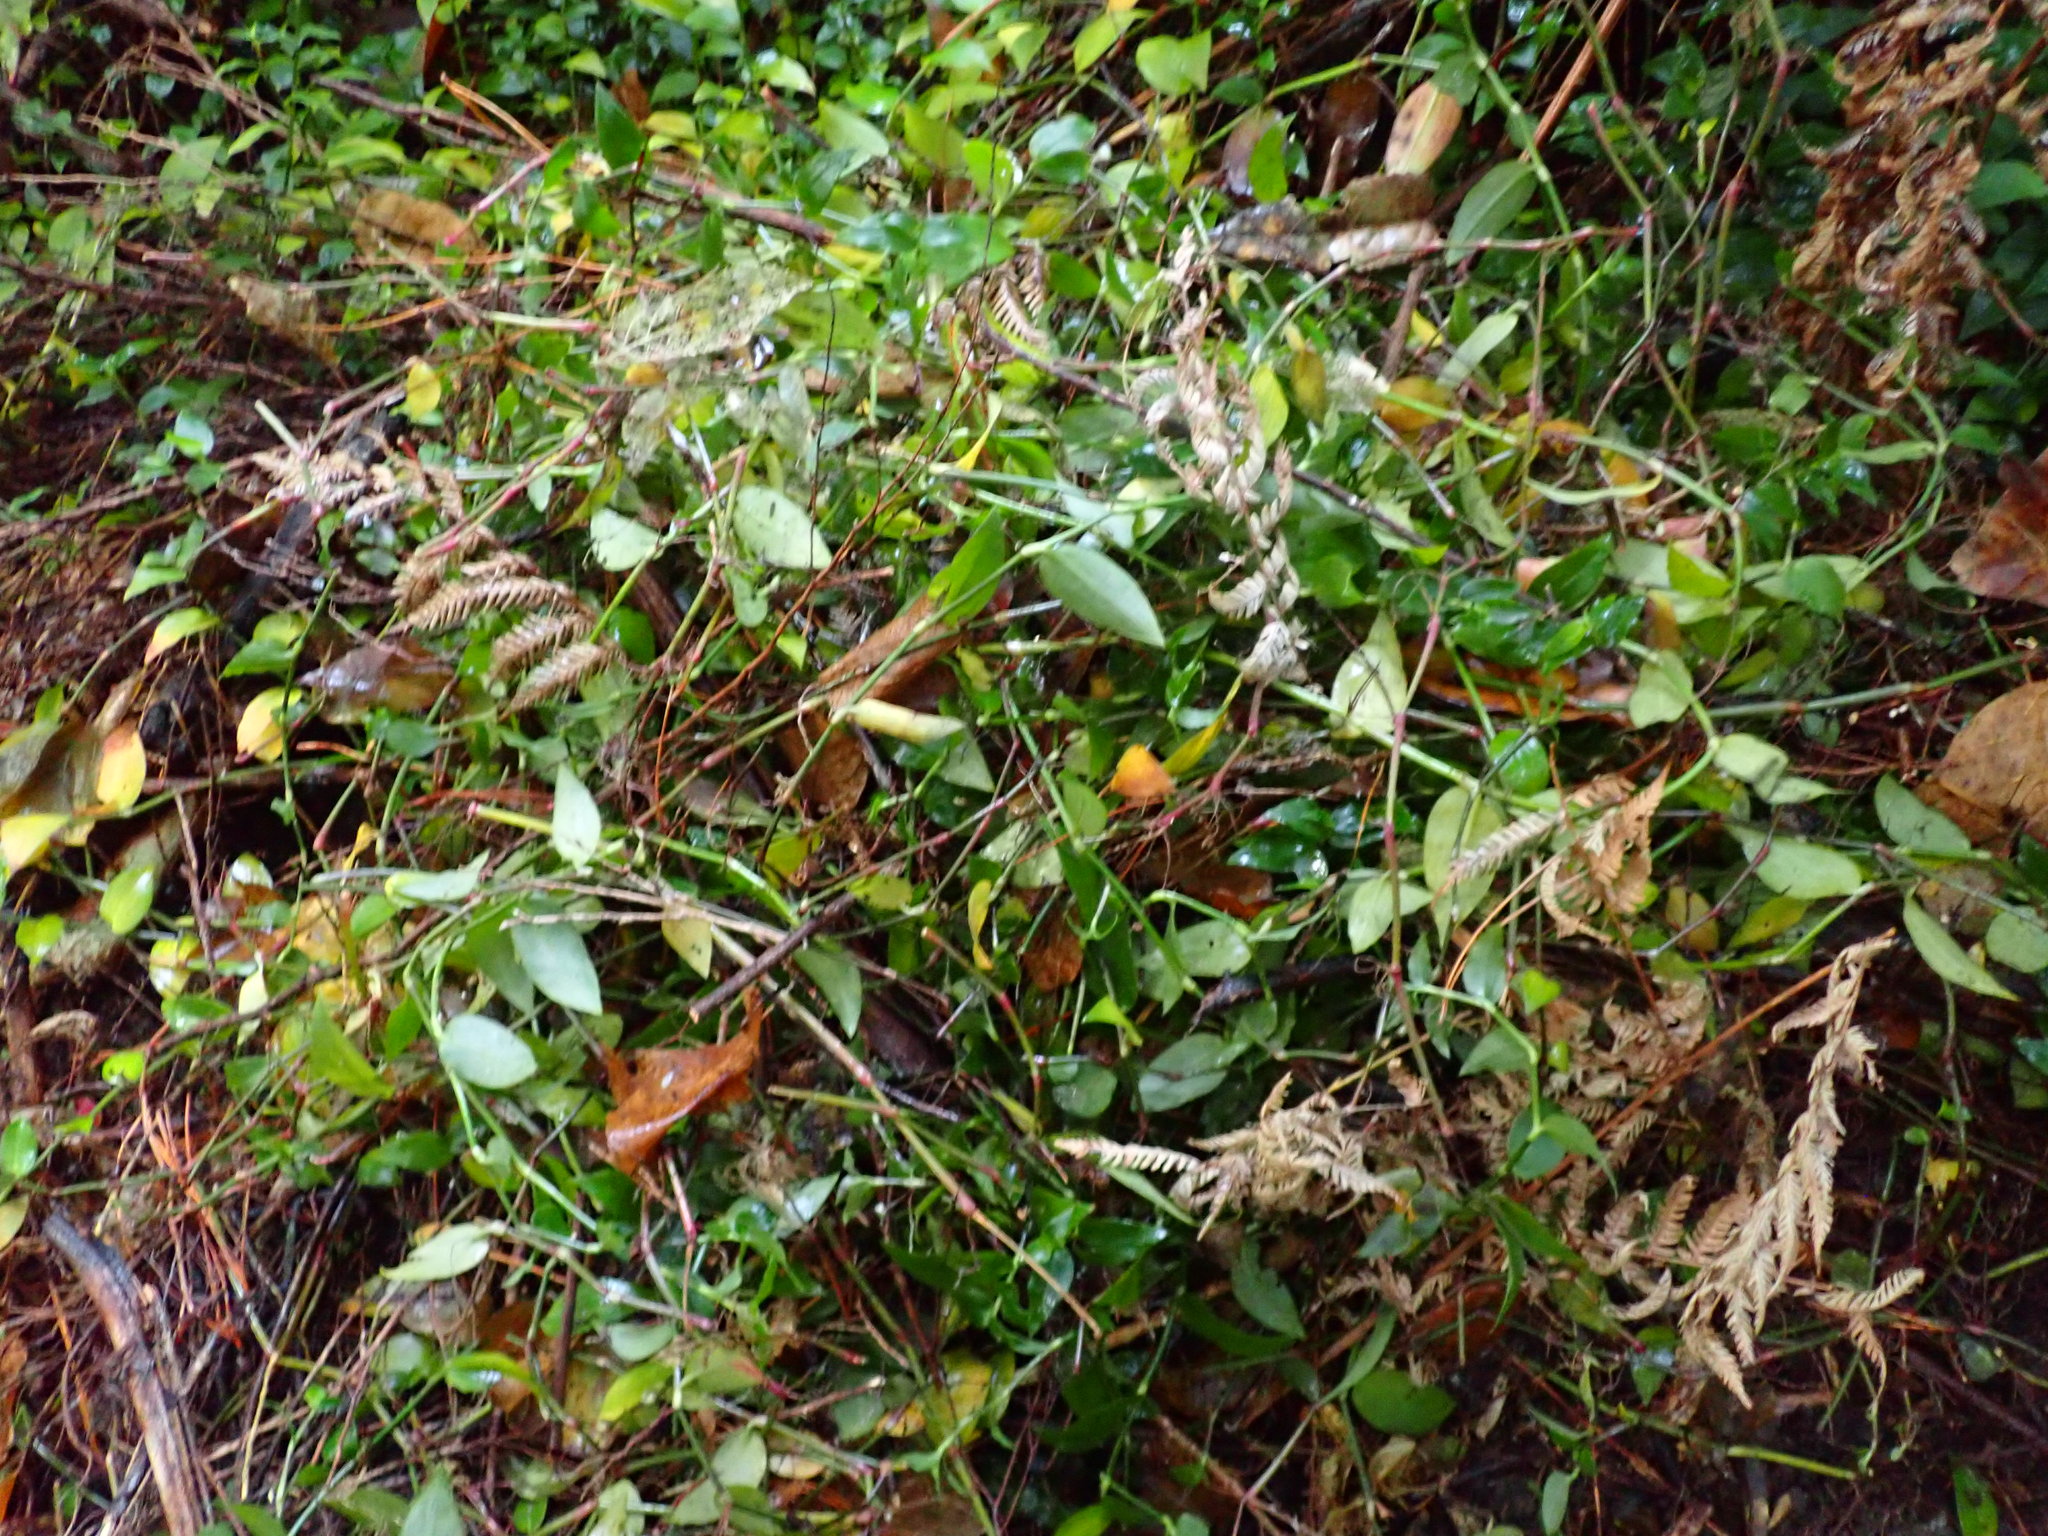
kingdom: Plantae
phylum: Tracheophyta
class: Liliopsida
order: Commelinales
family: Commelinaceae
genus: Tradescantia
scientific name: Tradescantia fluminensis
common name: Wandering-jew
